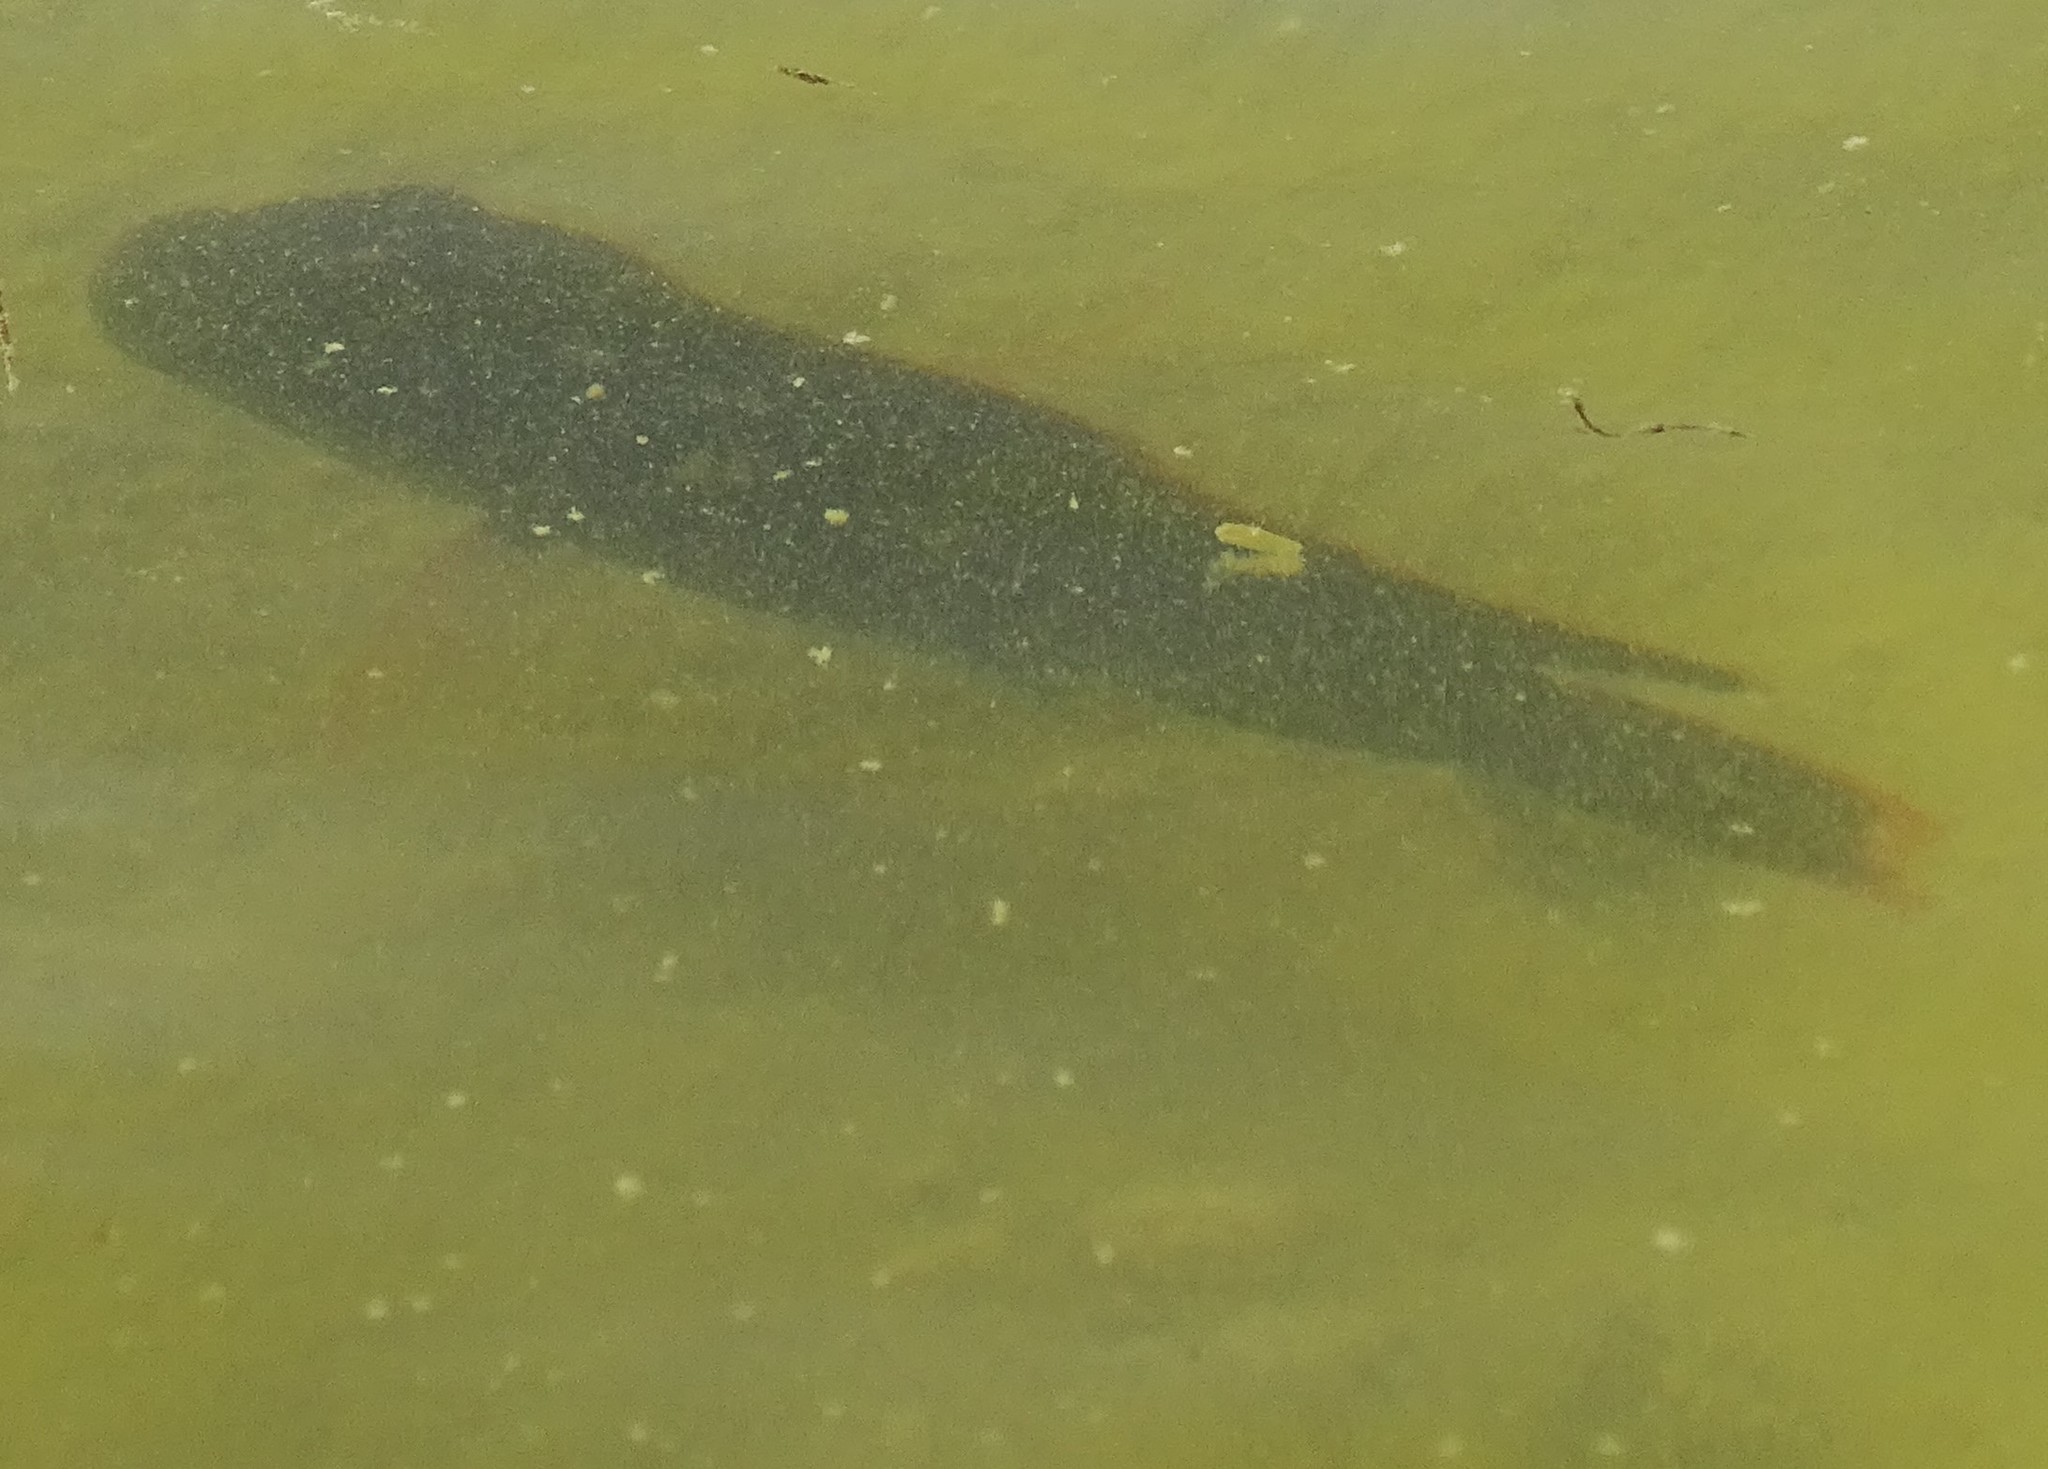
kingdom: Animalia
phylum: Chordata
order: Perciformes
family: Cichlidae
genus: Oreochromis
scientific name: Oreochromis mossambicus
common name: Mozambique tilapia
